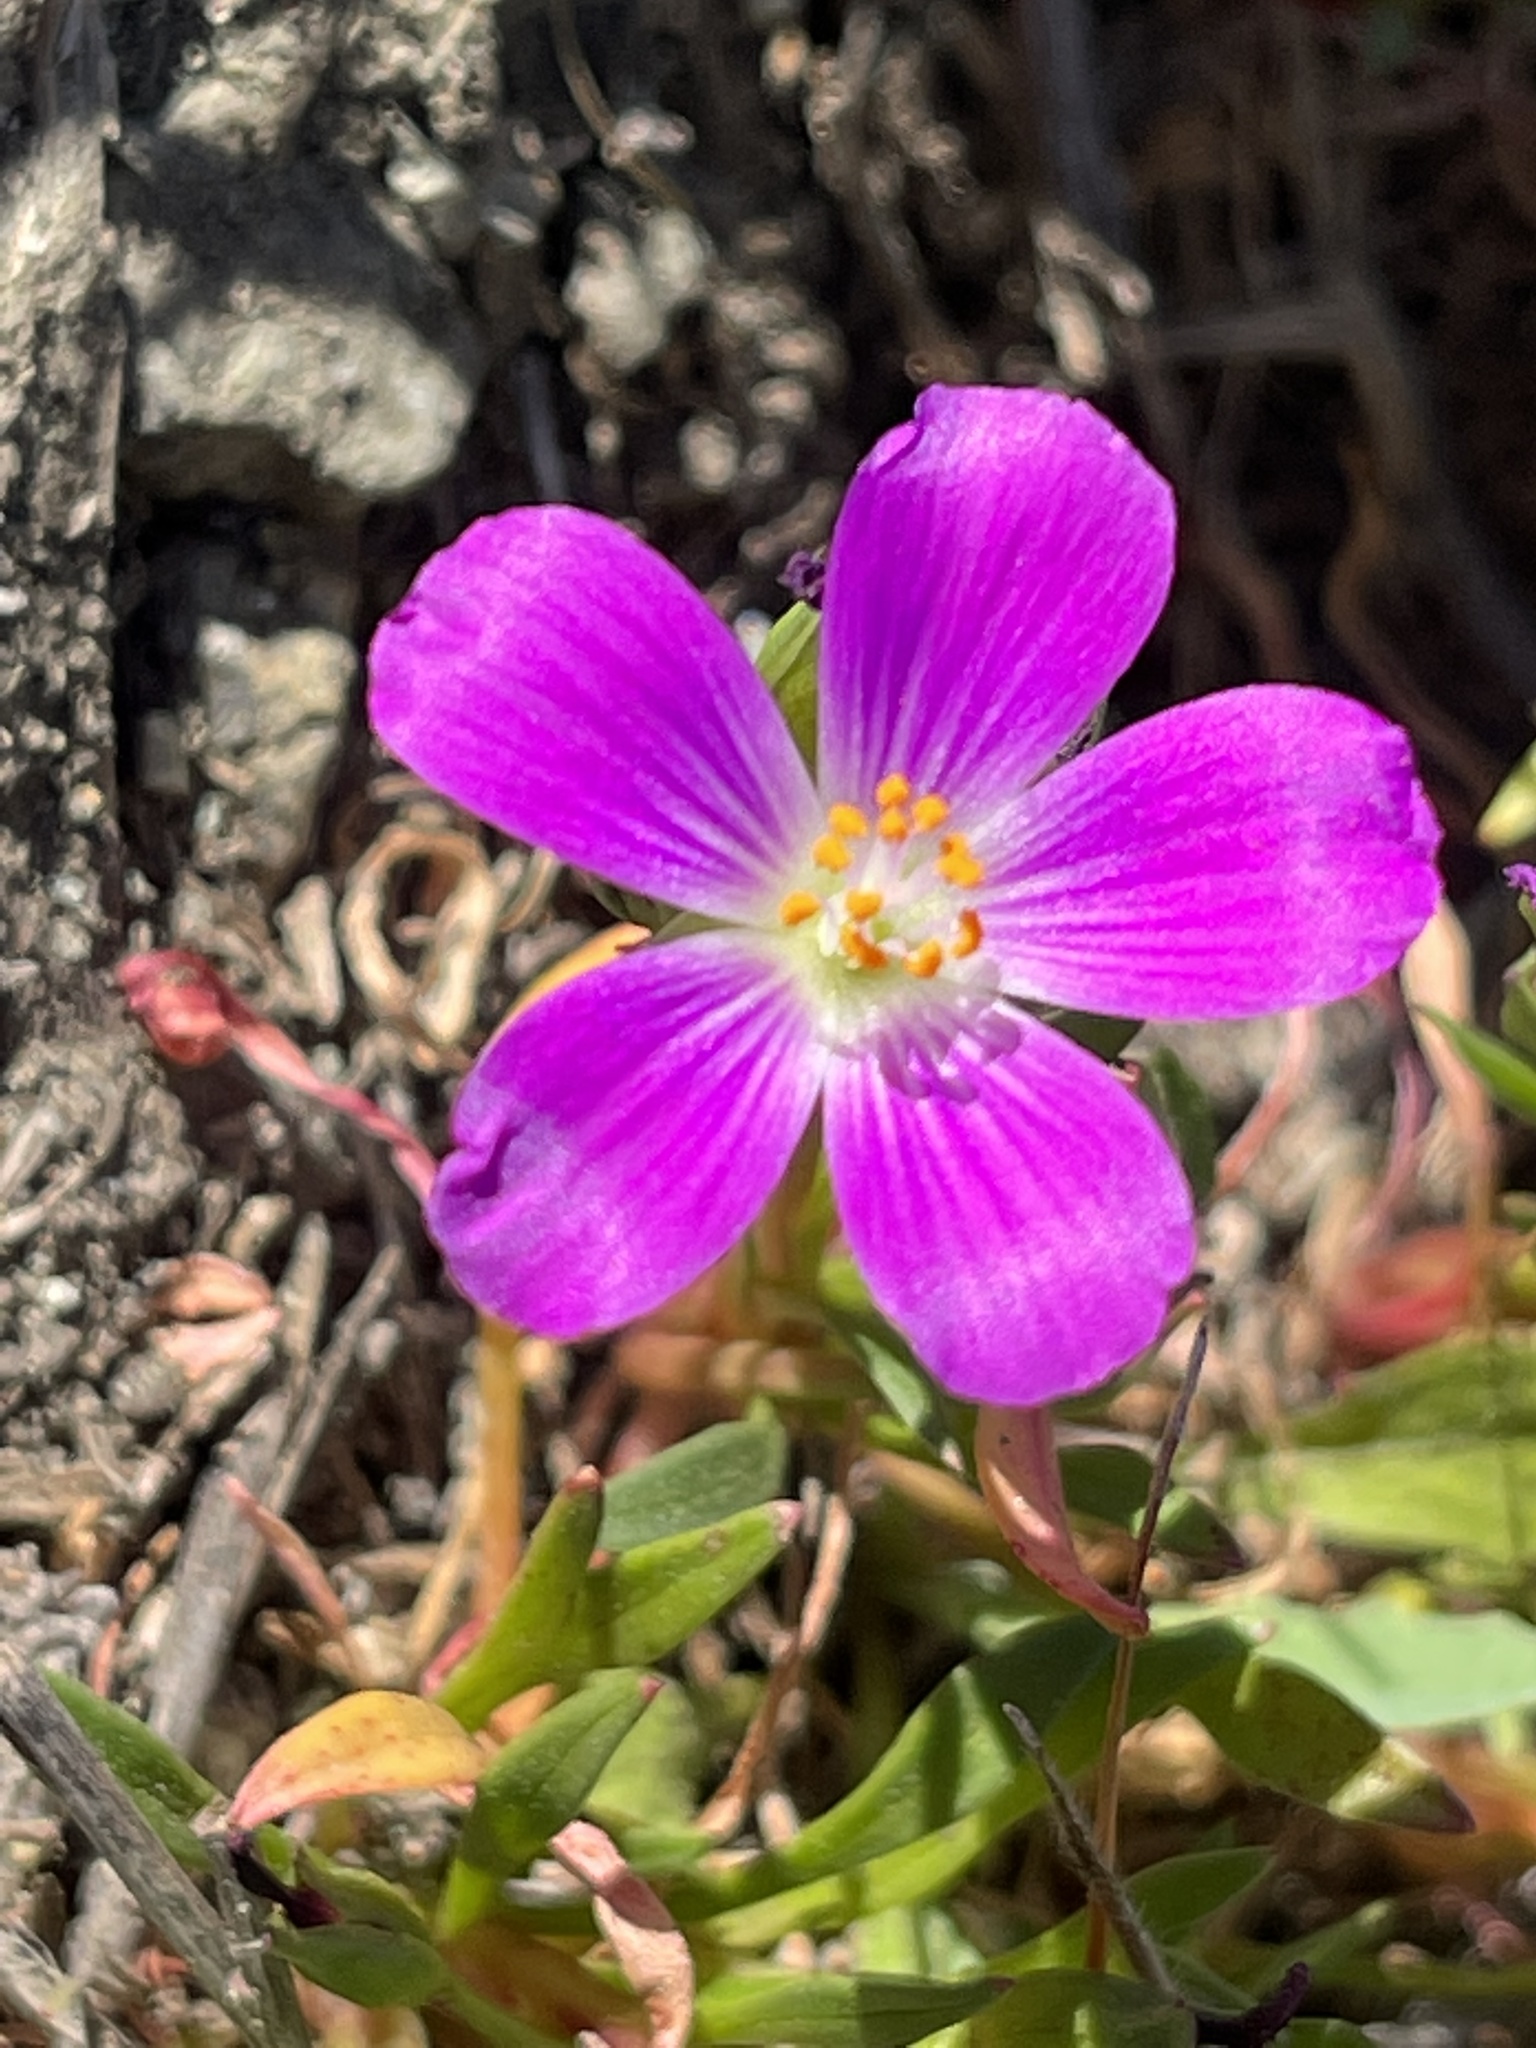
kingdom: Plantae
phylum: Tracheophyta
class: Magnoliopsida
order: Caryophyllales
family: Montiaceae
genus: Calandrinia
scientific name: Calandrinia menziesii
